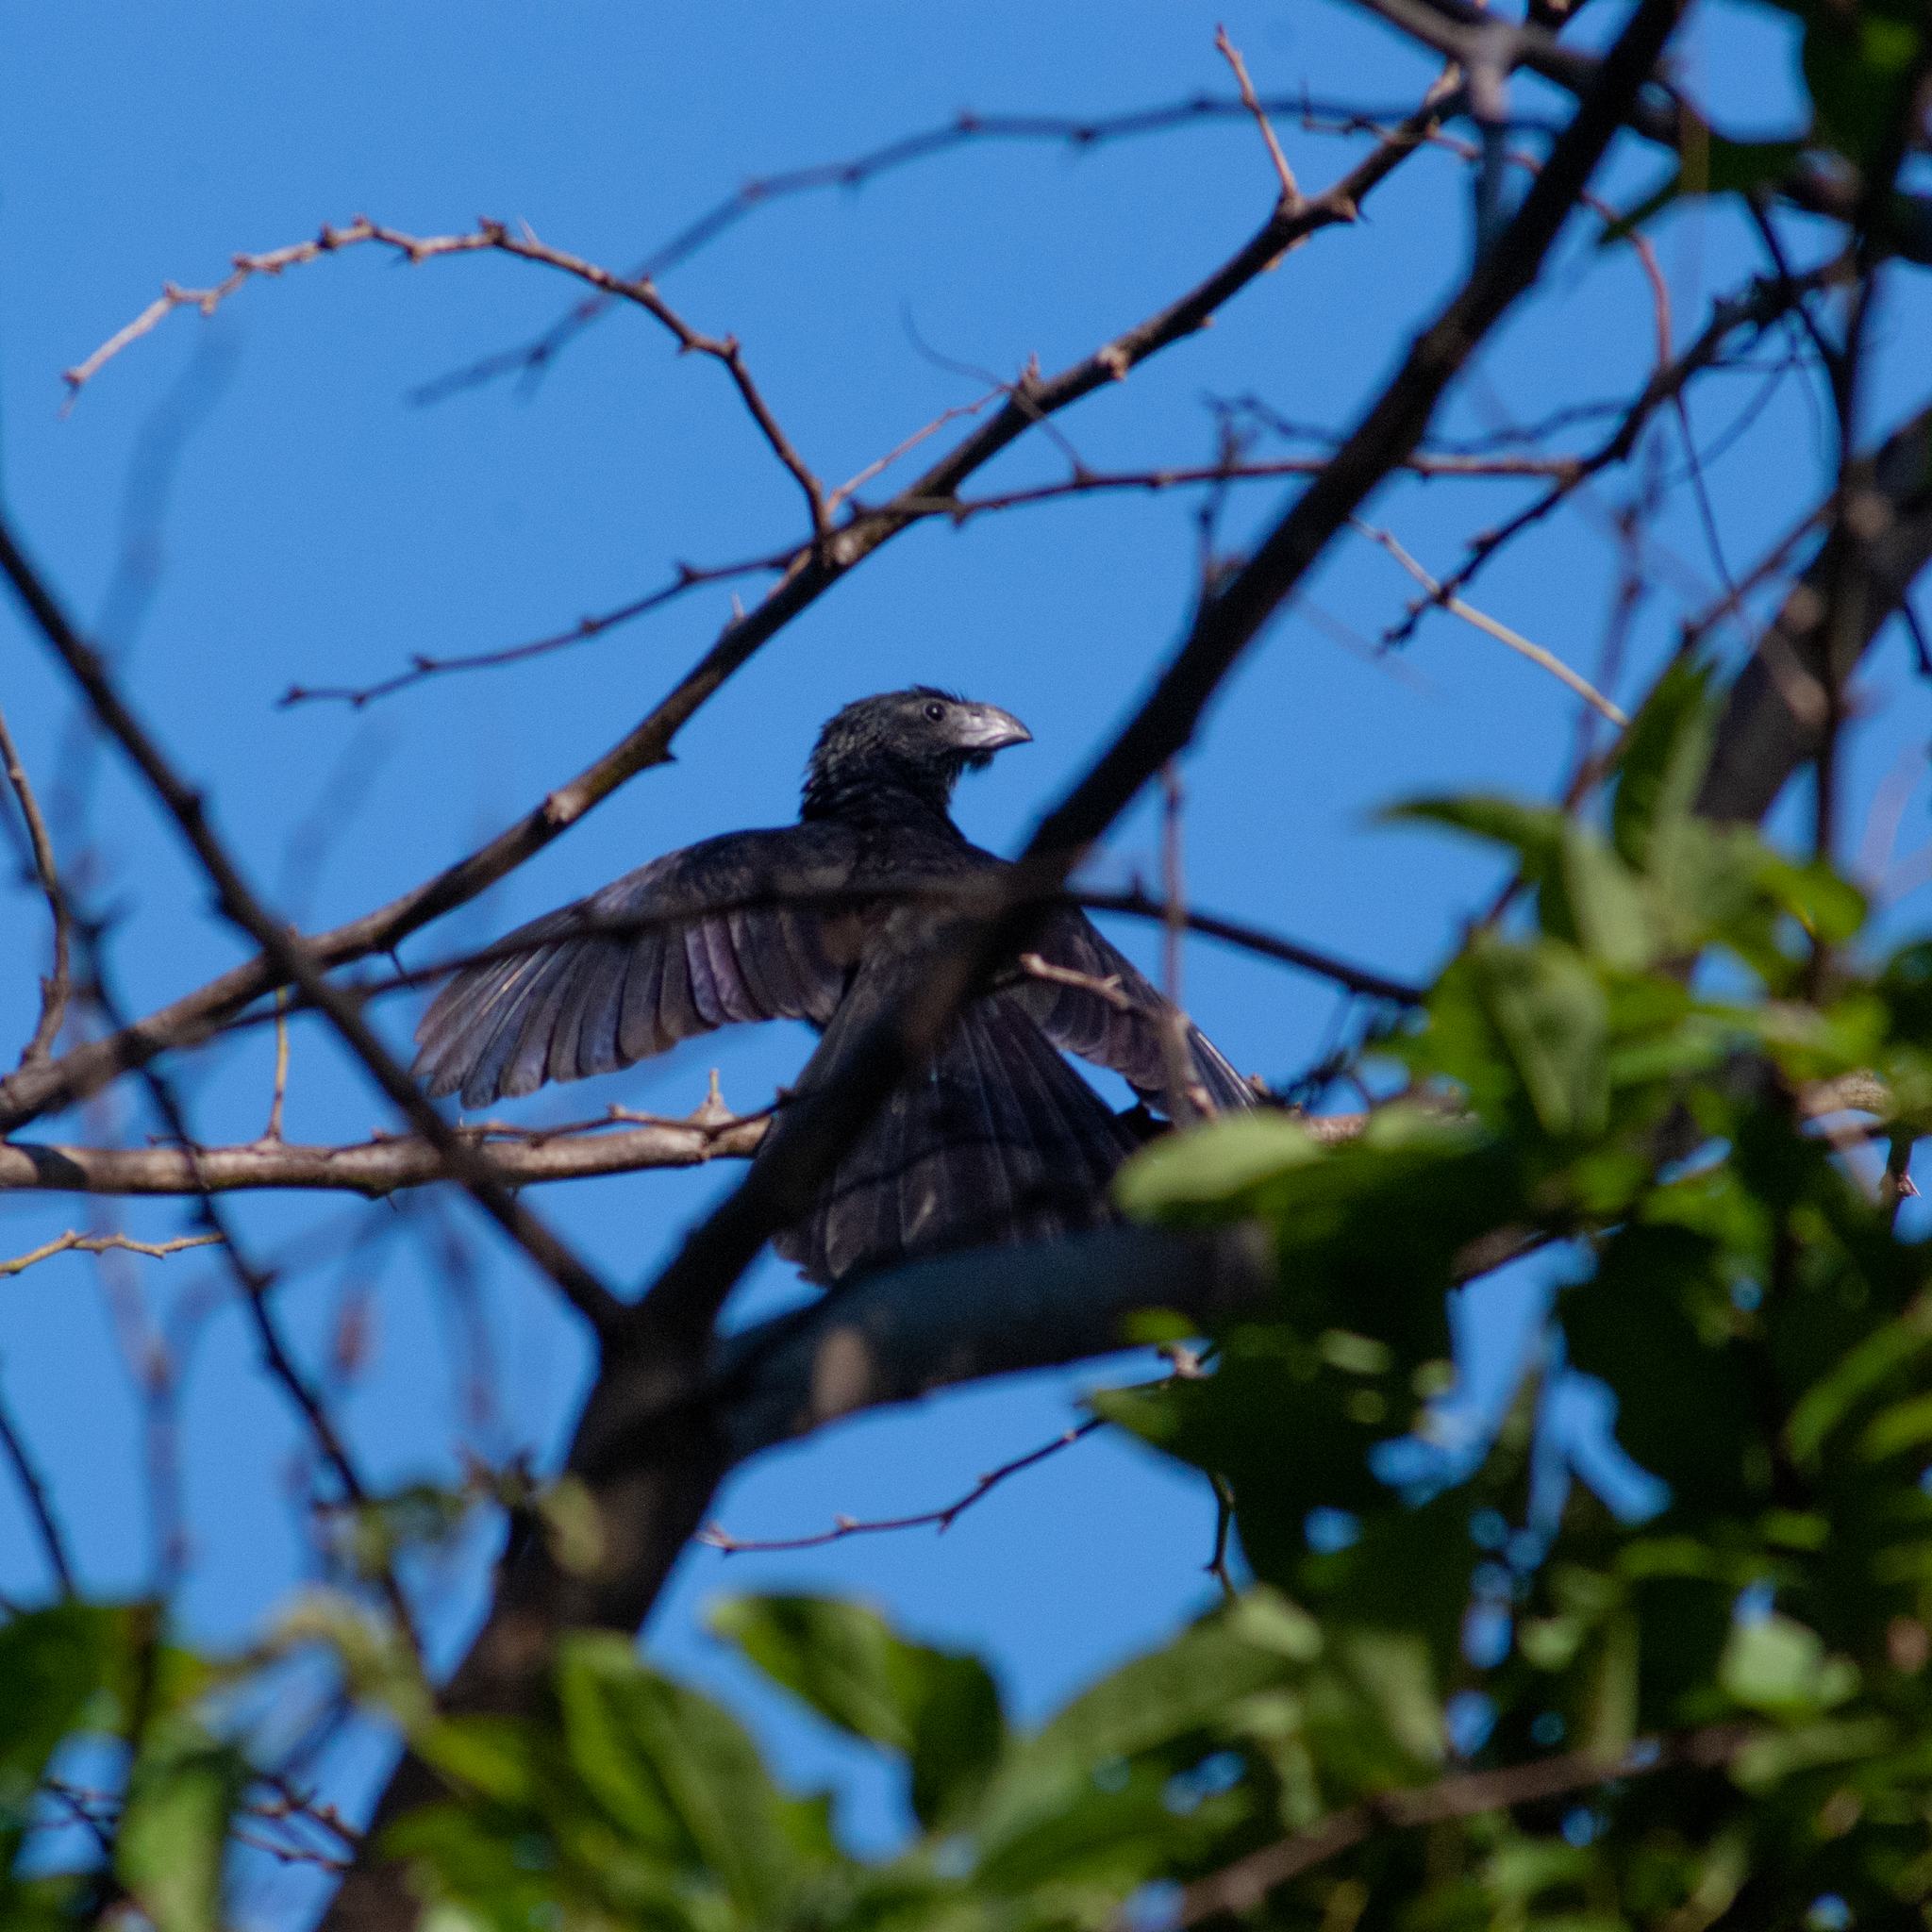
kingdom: Animalia
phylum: Chordata
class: Aves
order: Cuculiformes
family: Cuculidae
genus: Crotophaga
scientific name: Crotophaga sulcirostris
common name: Groove-billed ani
